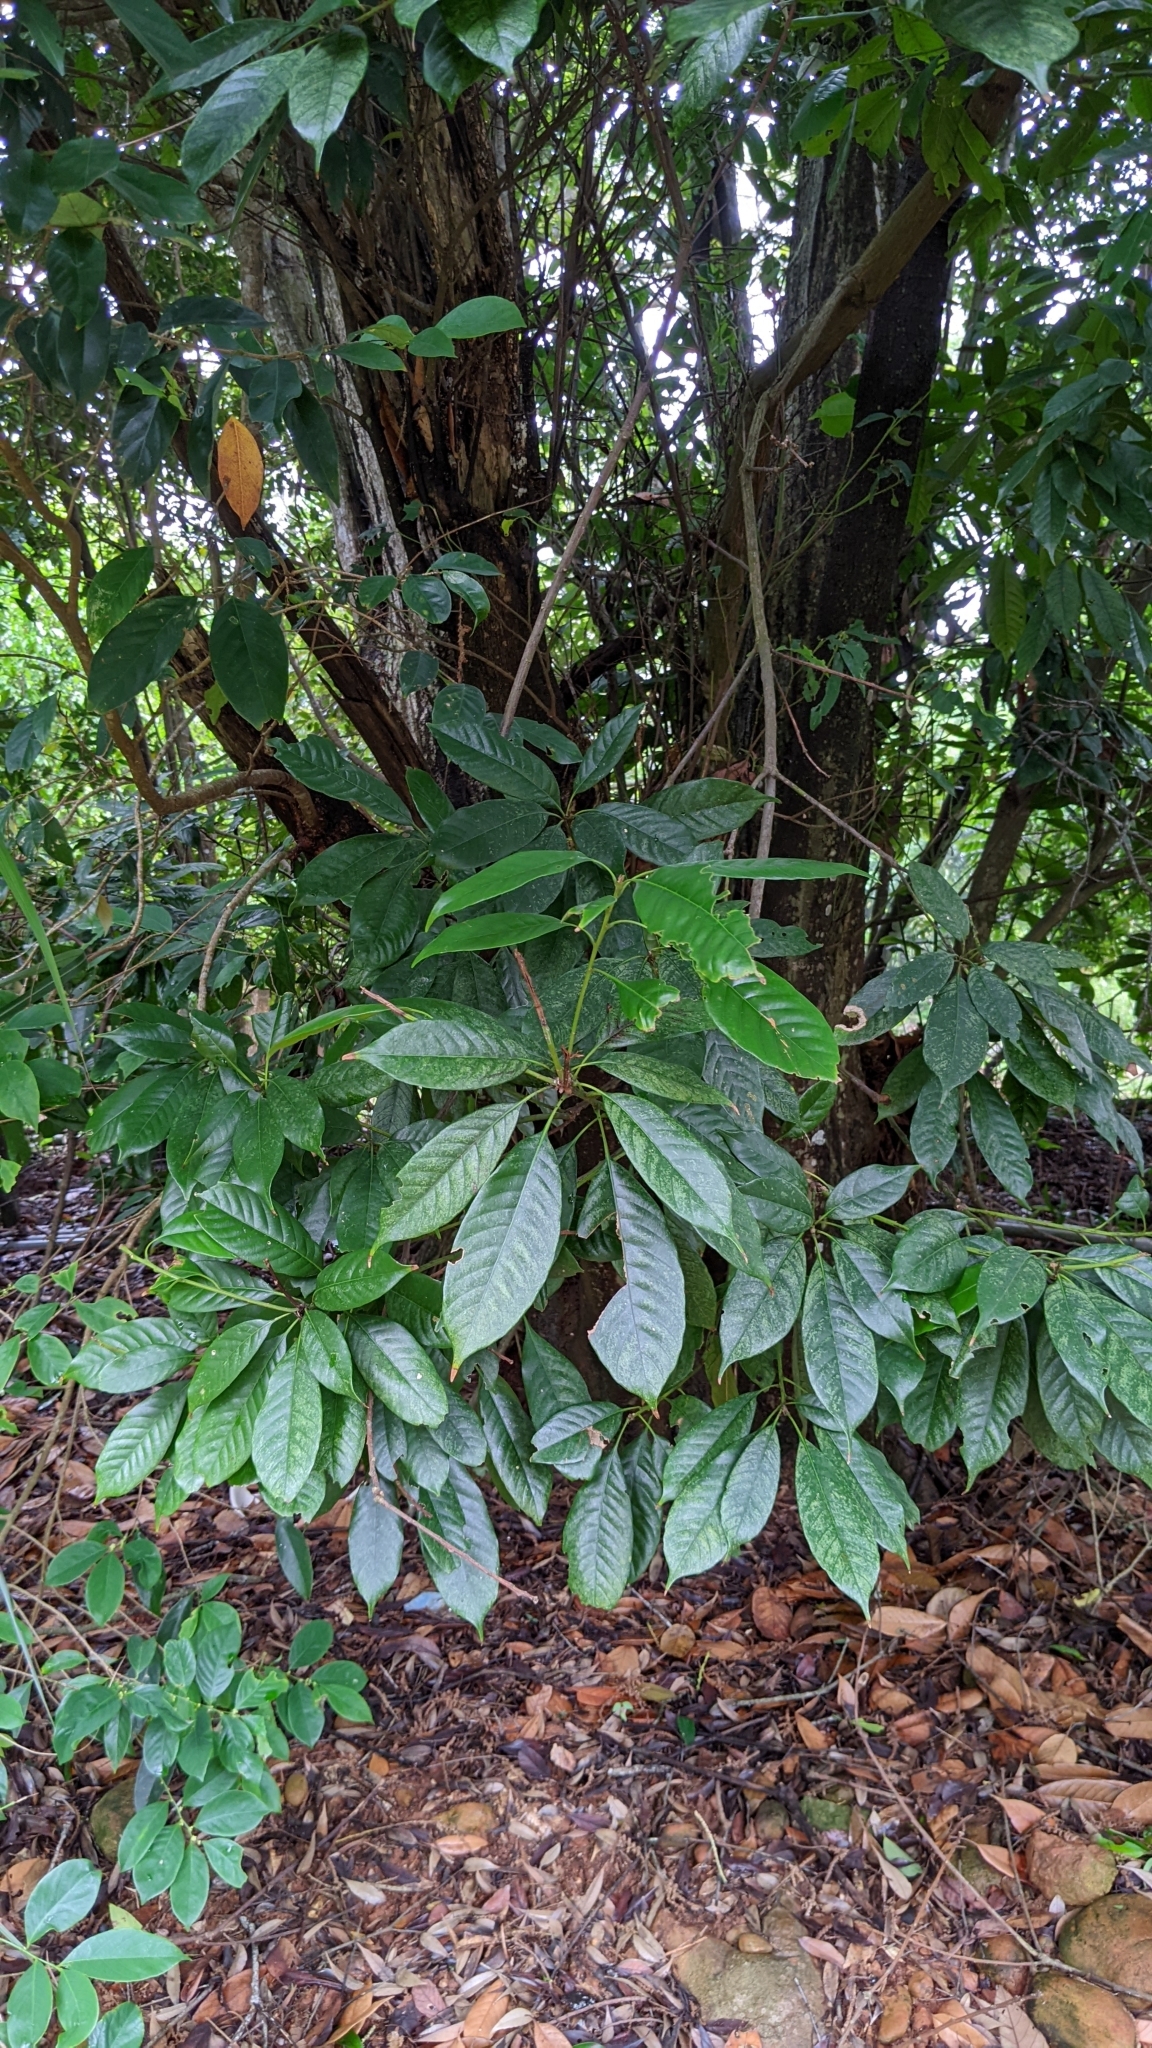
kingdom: Plantae
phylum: Tracheophyta
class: Magnoliopsida
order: Fagales
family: Fagaceae
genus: Lithocarpus
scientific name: Lithocarpus brevicaudatus
